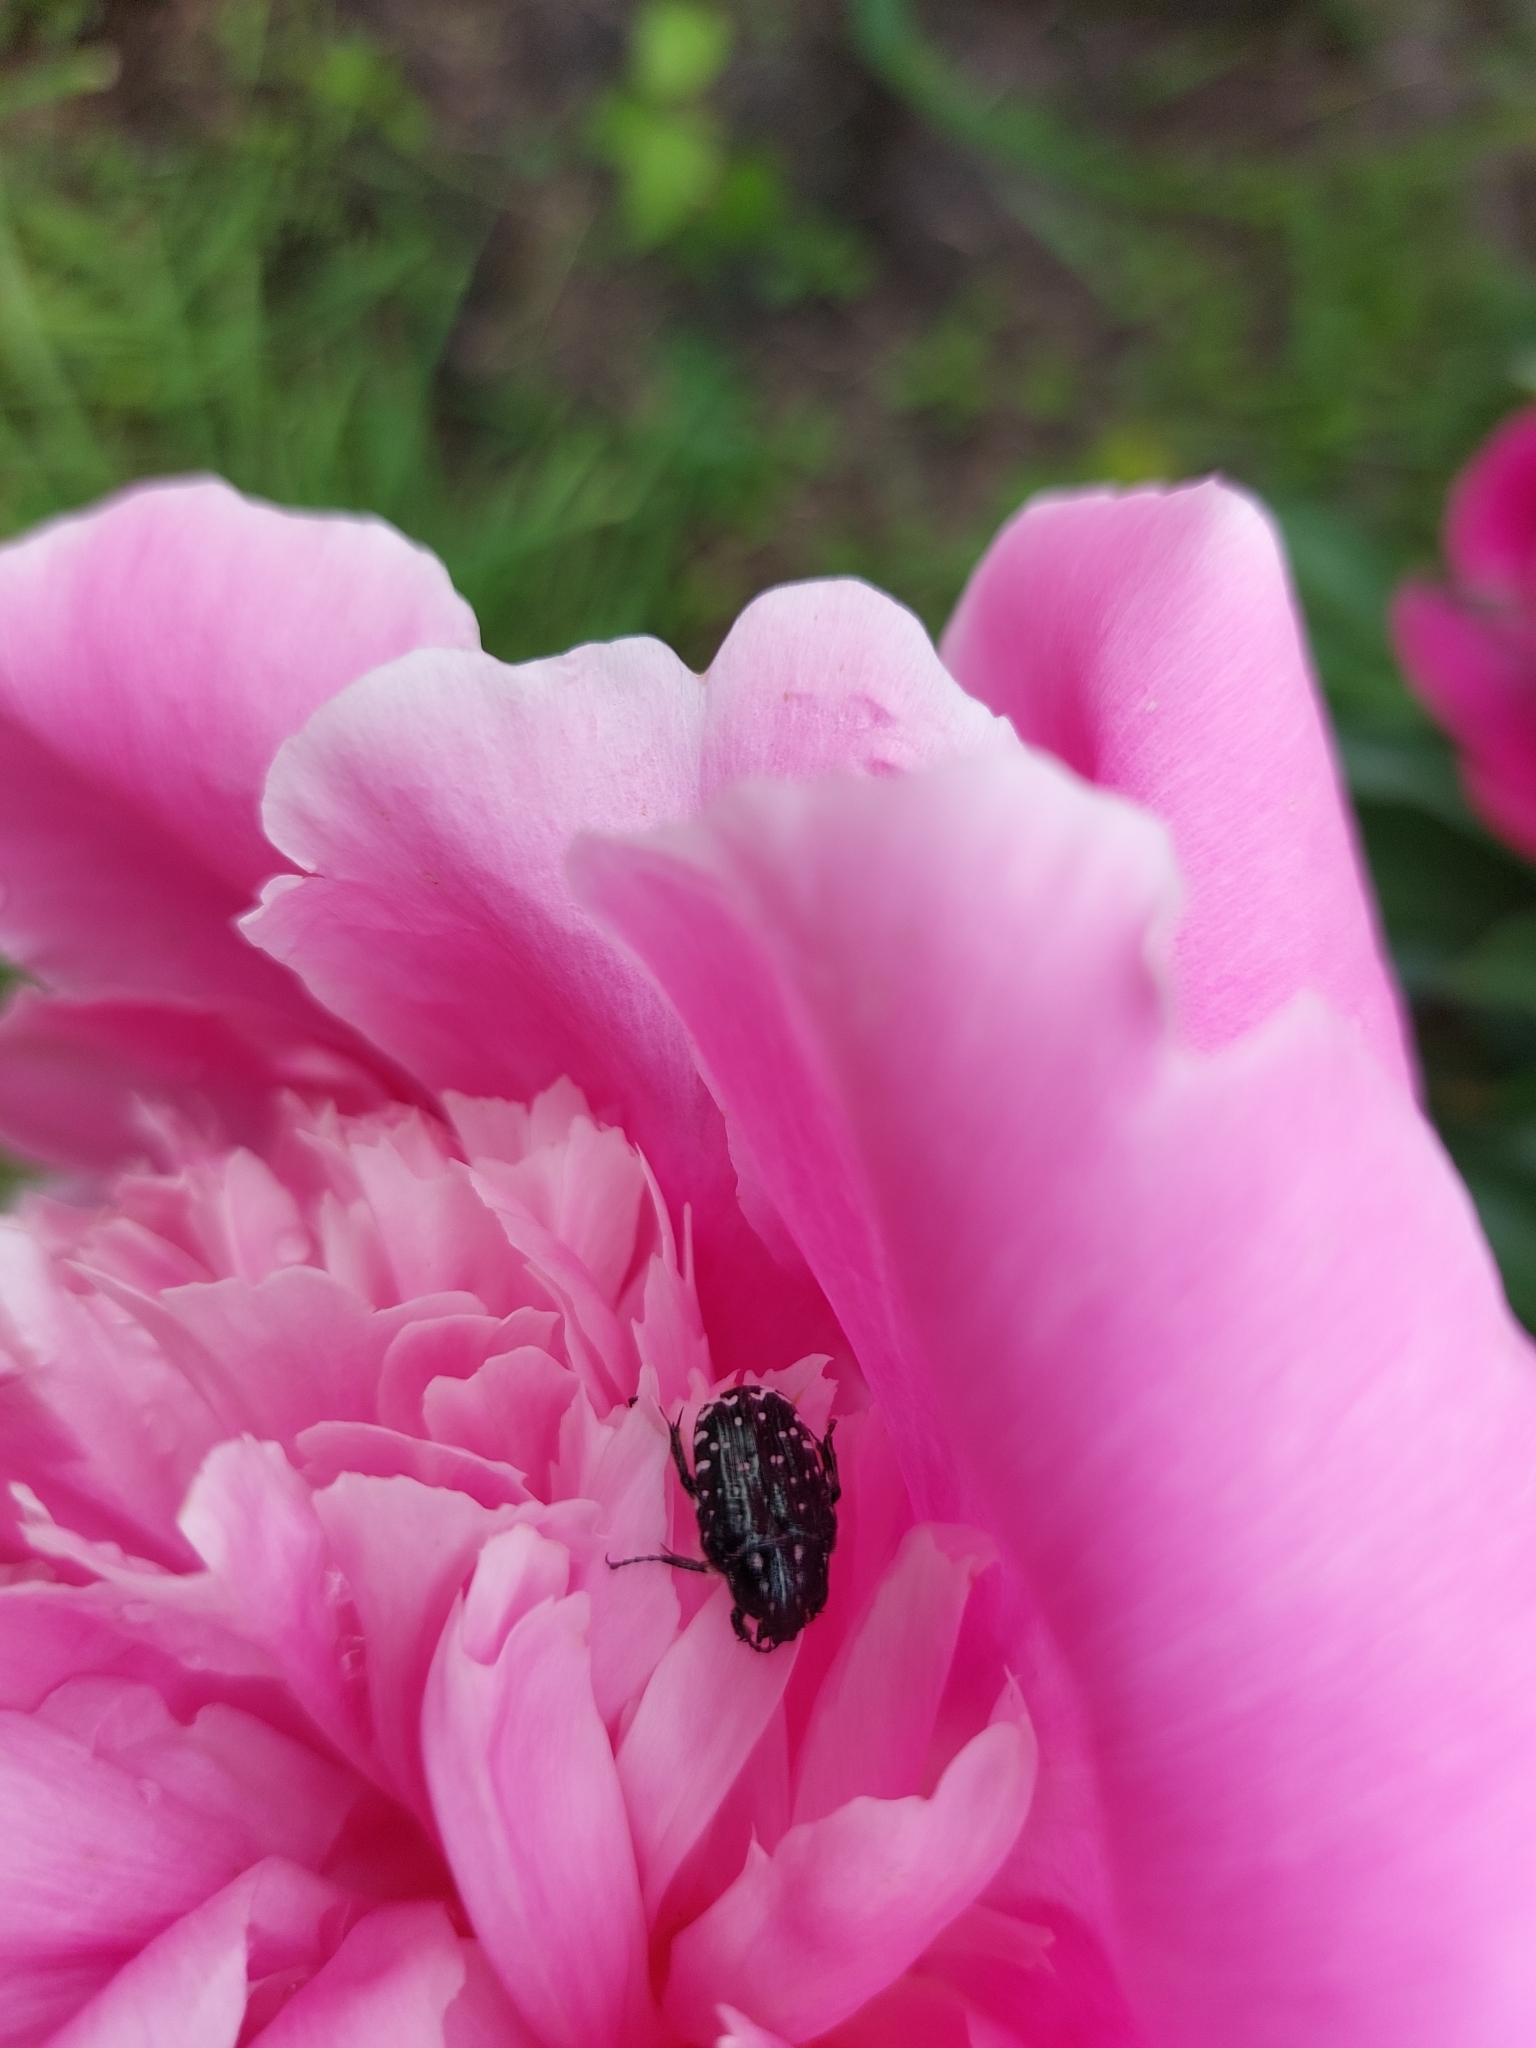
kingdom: Animalia
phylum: Arthropoda
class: Insecta
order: Coleoptera
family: Scarabaeidae
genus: Oxythyrea
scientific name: Oxythyrea funesta
